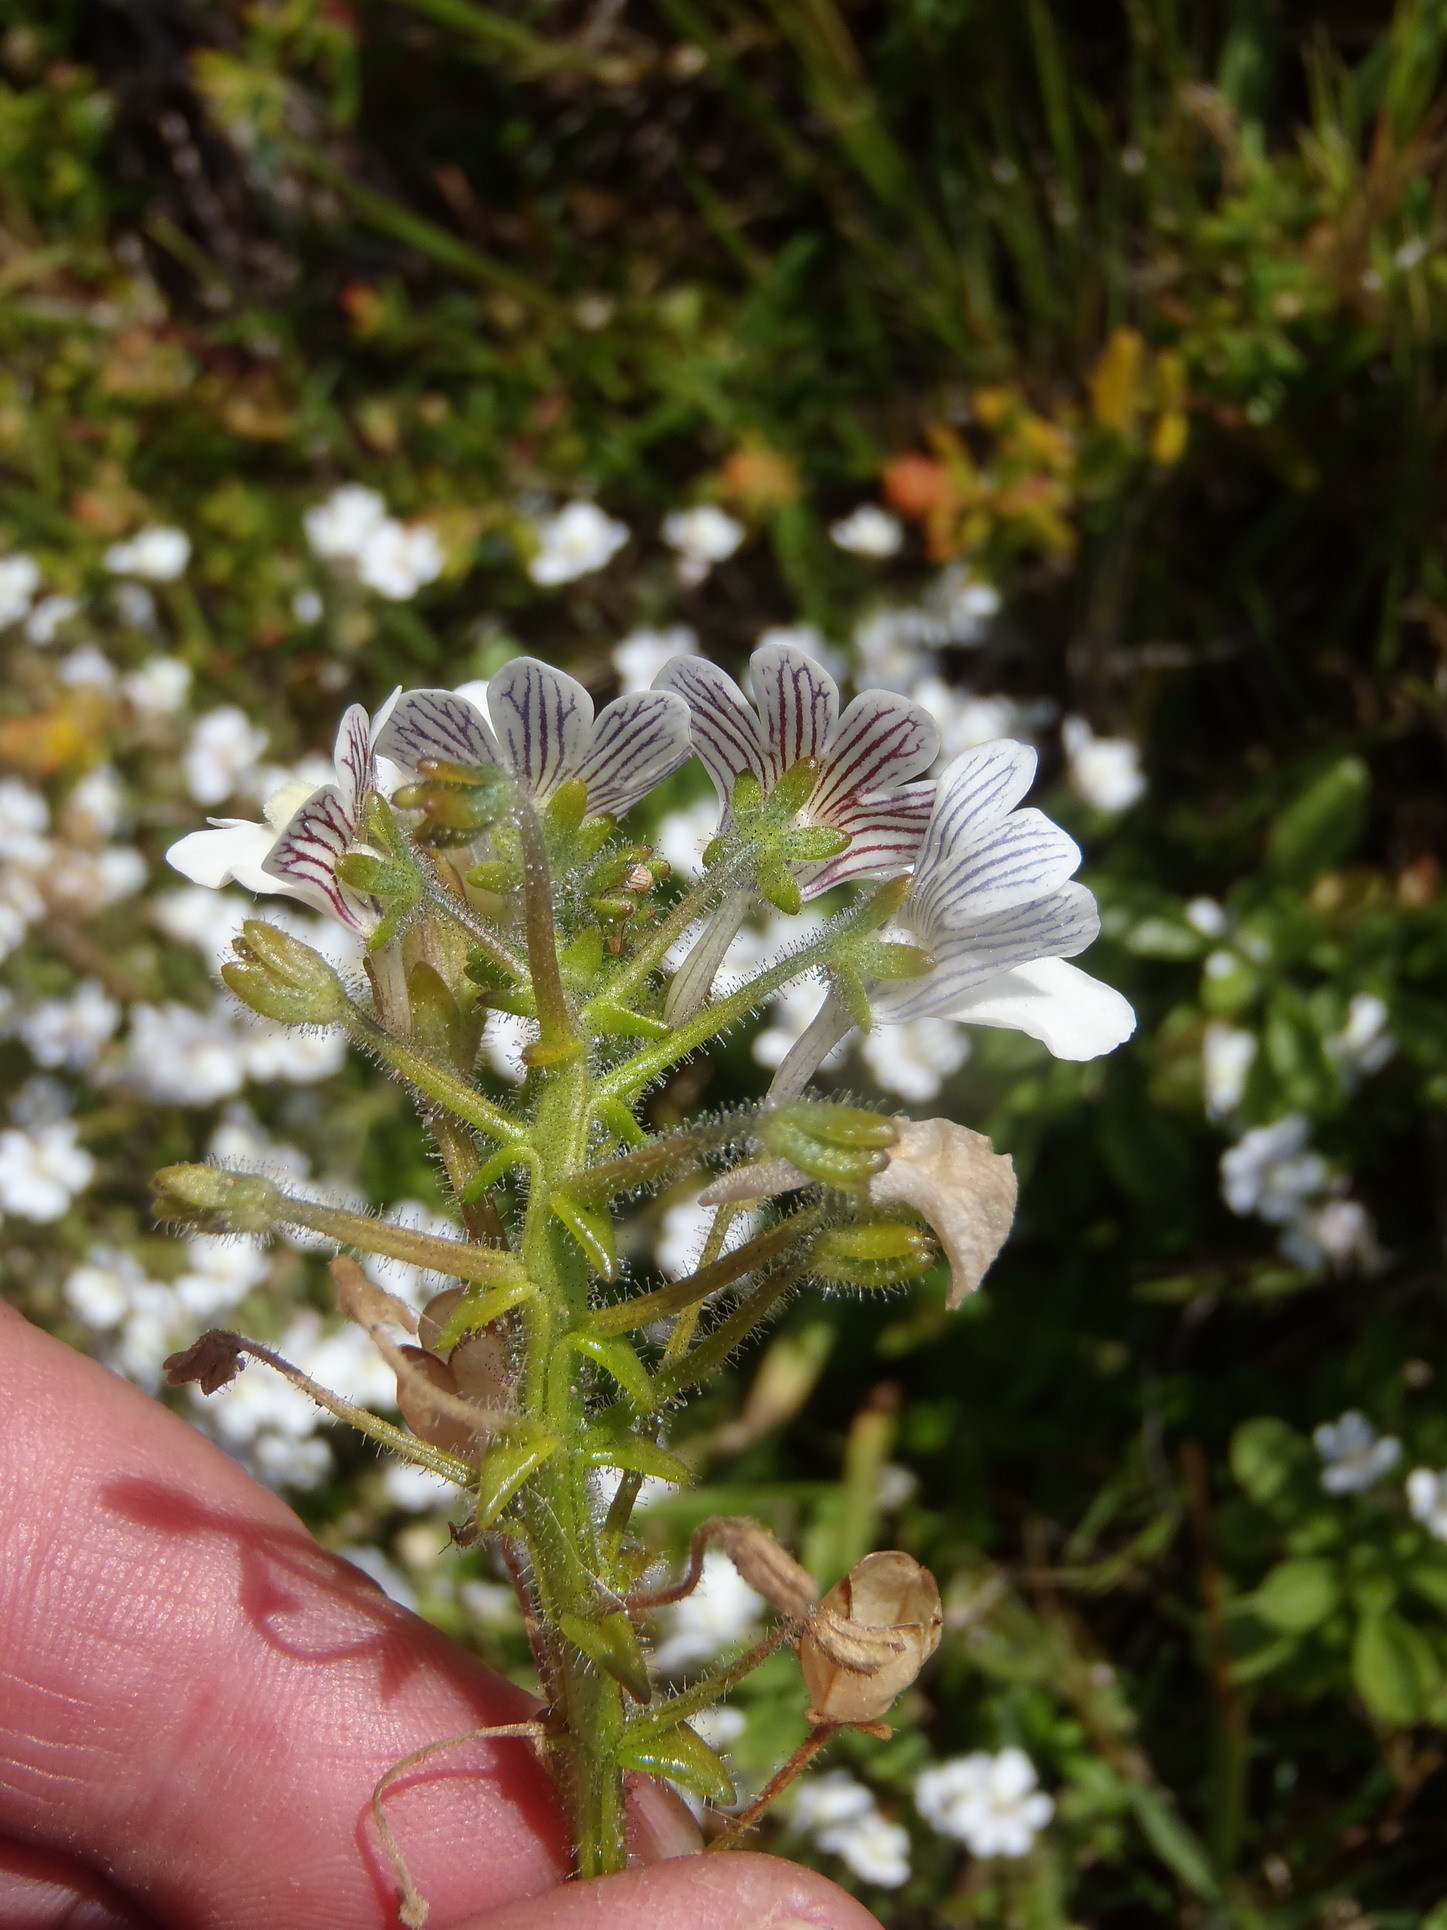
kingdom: Plantae
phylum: Tracheophyta
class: Magnoliopsida
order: Lamiales
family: Scrophulariaceae
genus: Nemesia
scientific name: Nemesia bicornis
